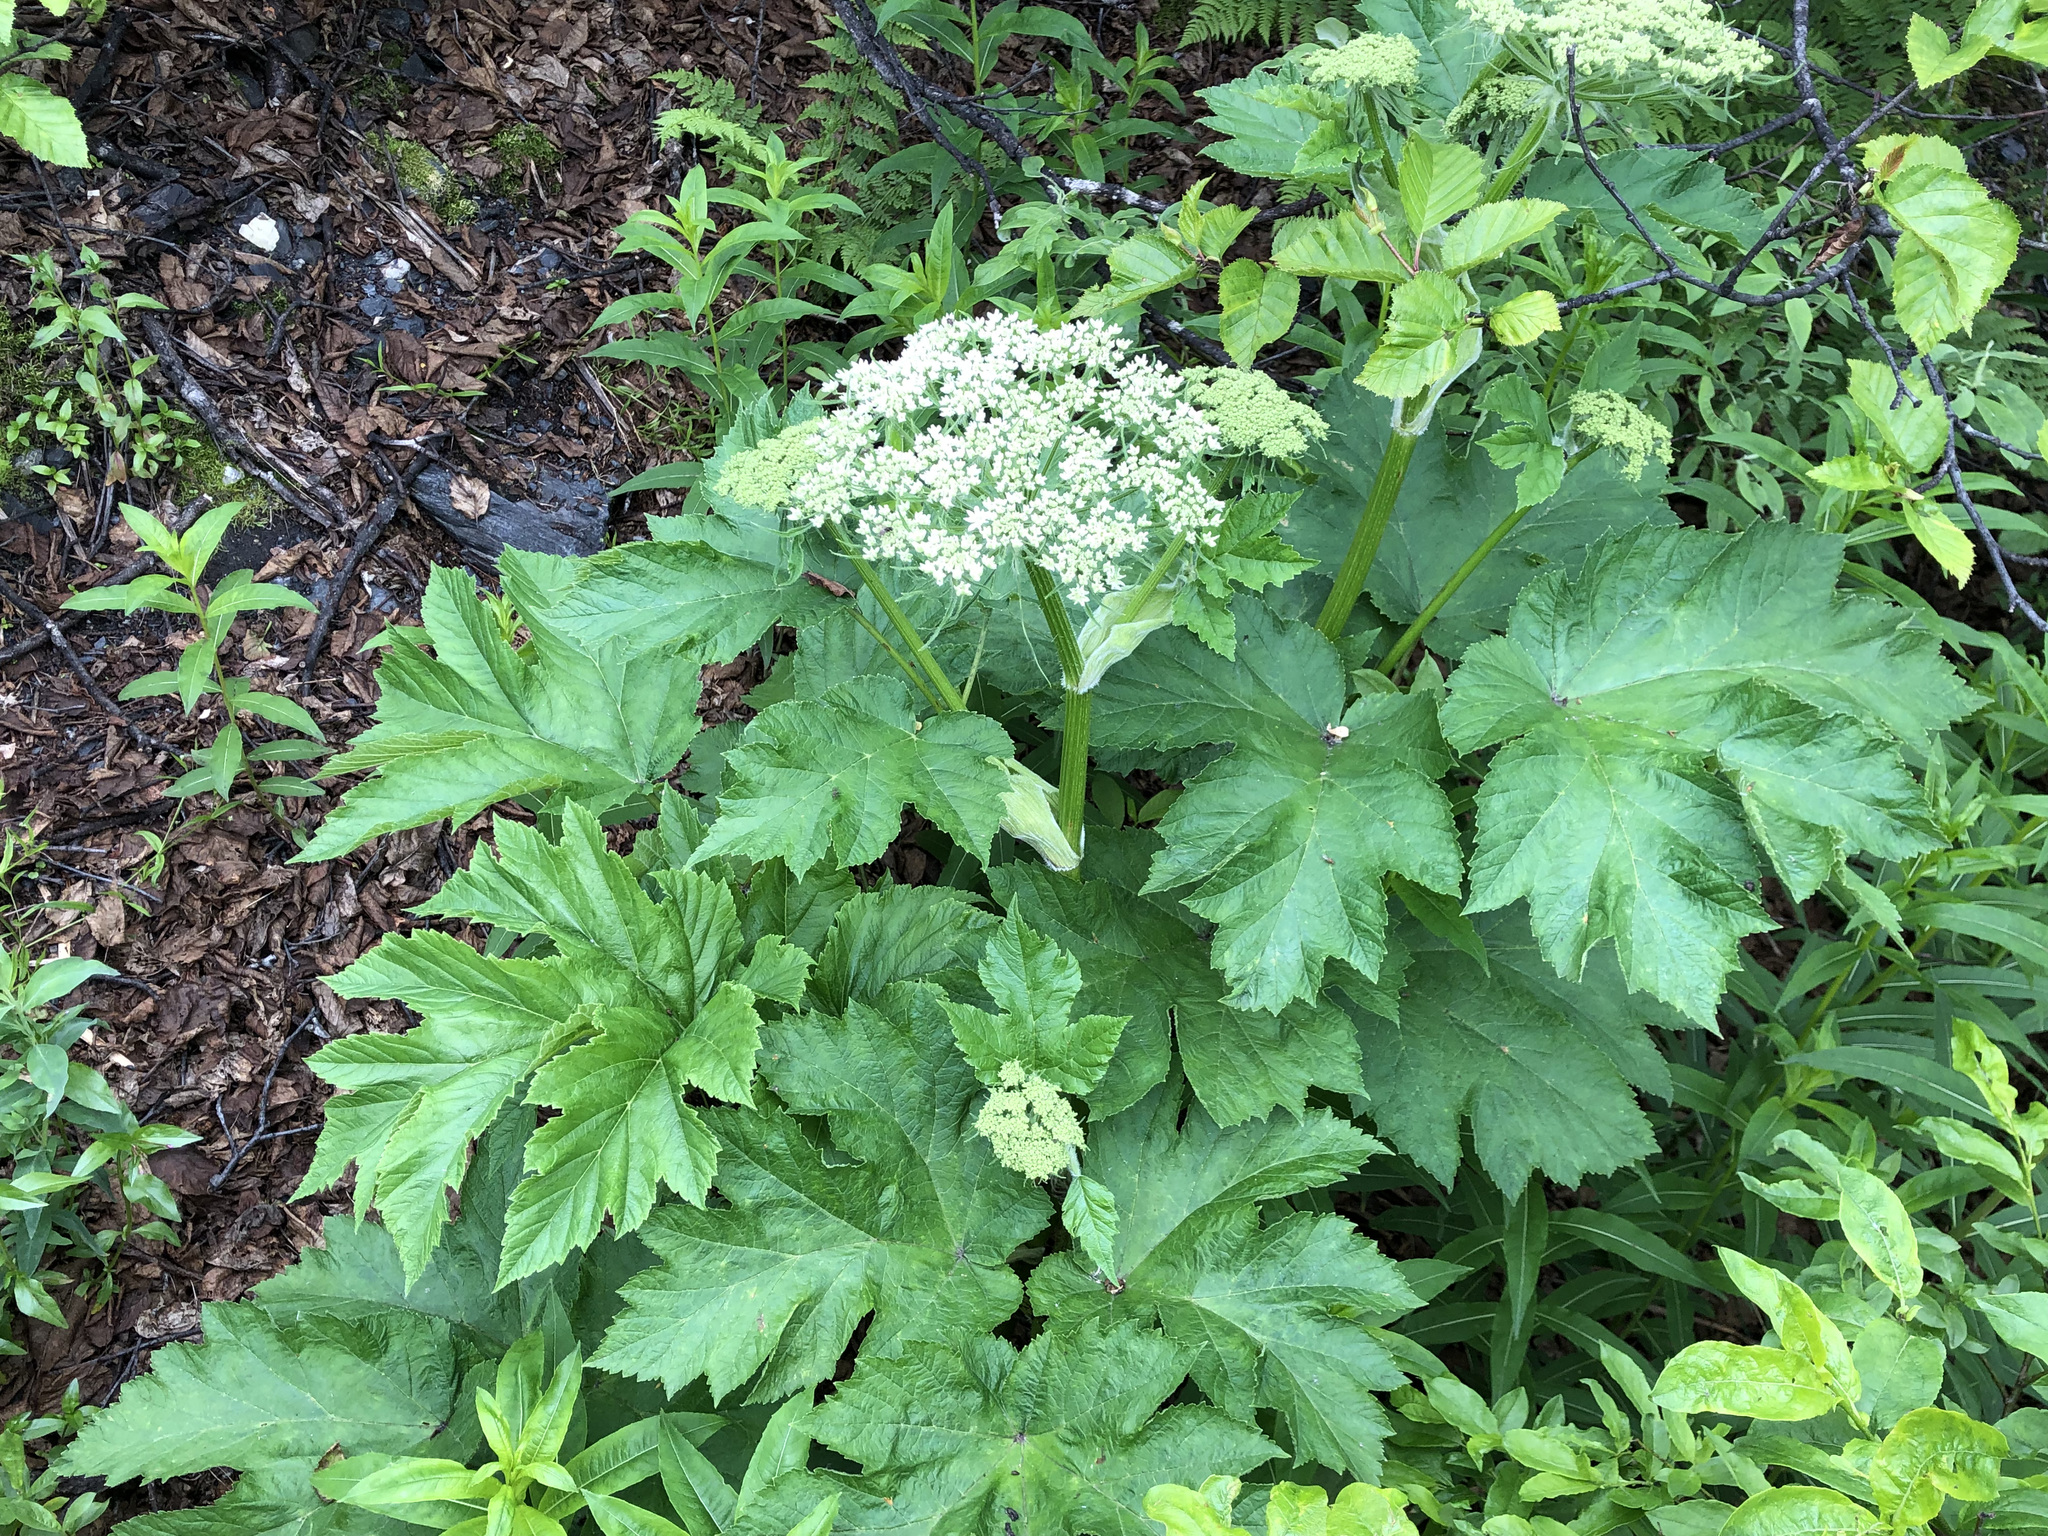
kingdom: Plantae
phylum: Tracheophyta
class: Magnoliopsida
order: Apiales
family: Apiaceae
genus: Heracleum
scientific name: Heracleum maximum
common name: American cow parsnip
